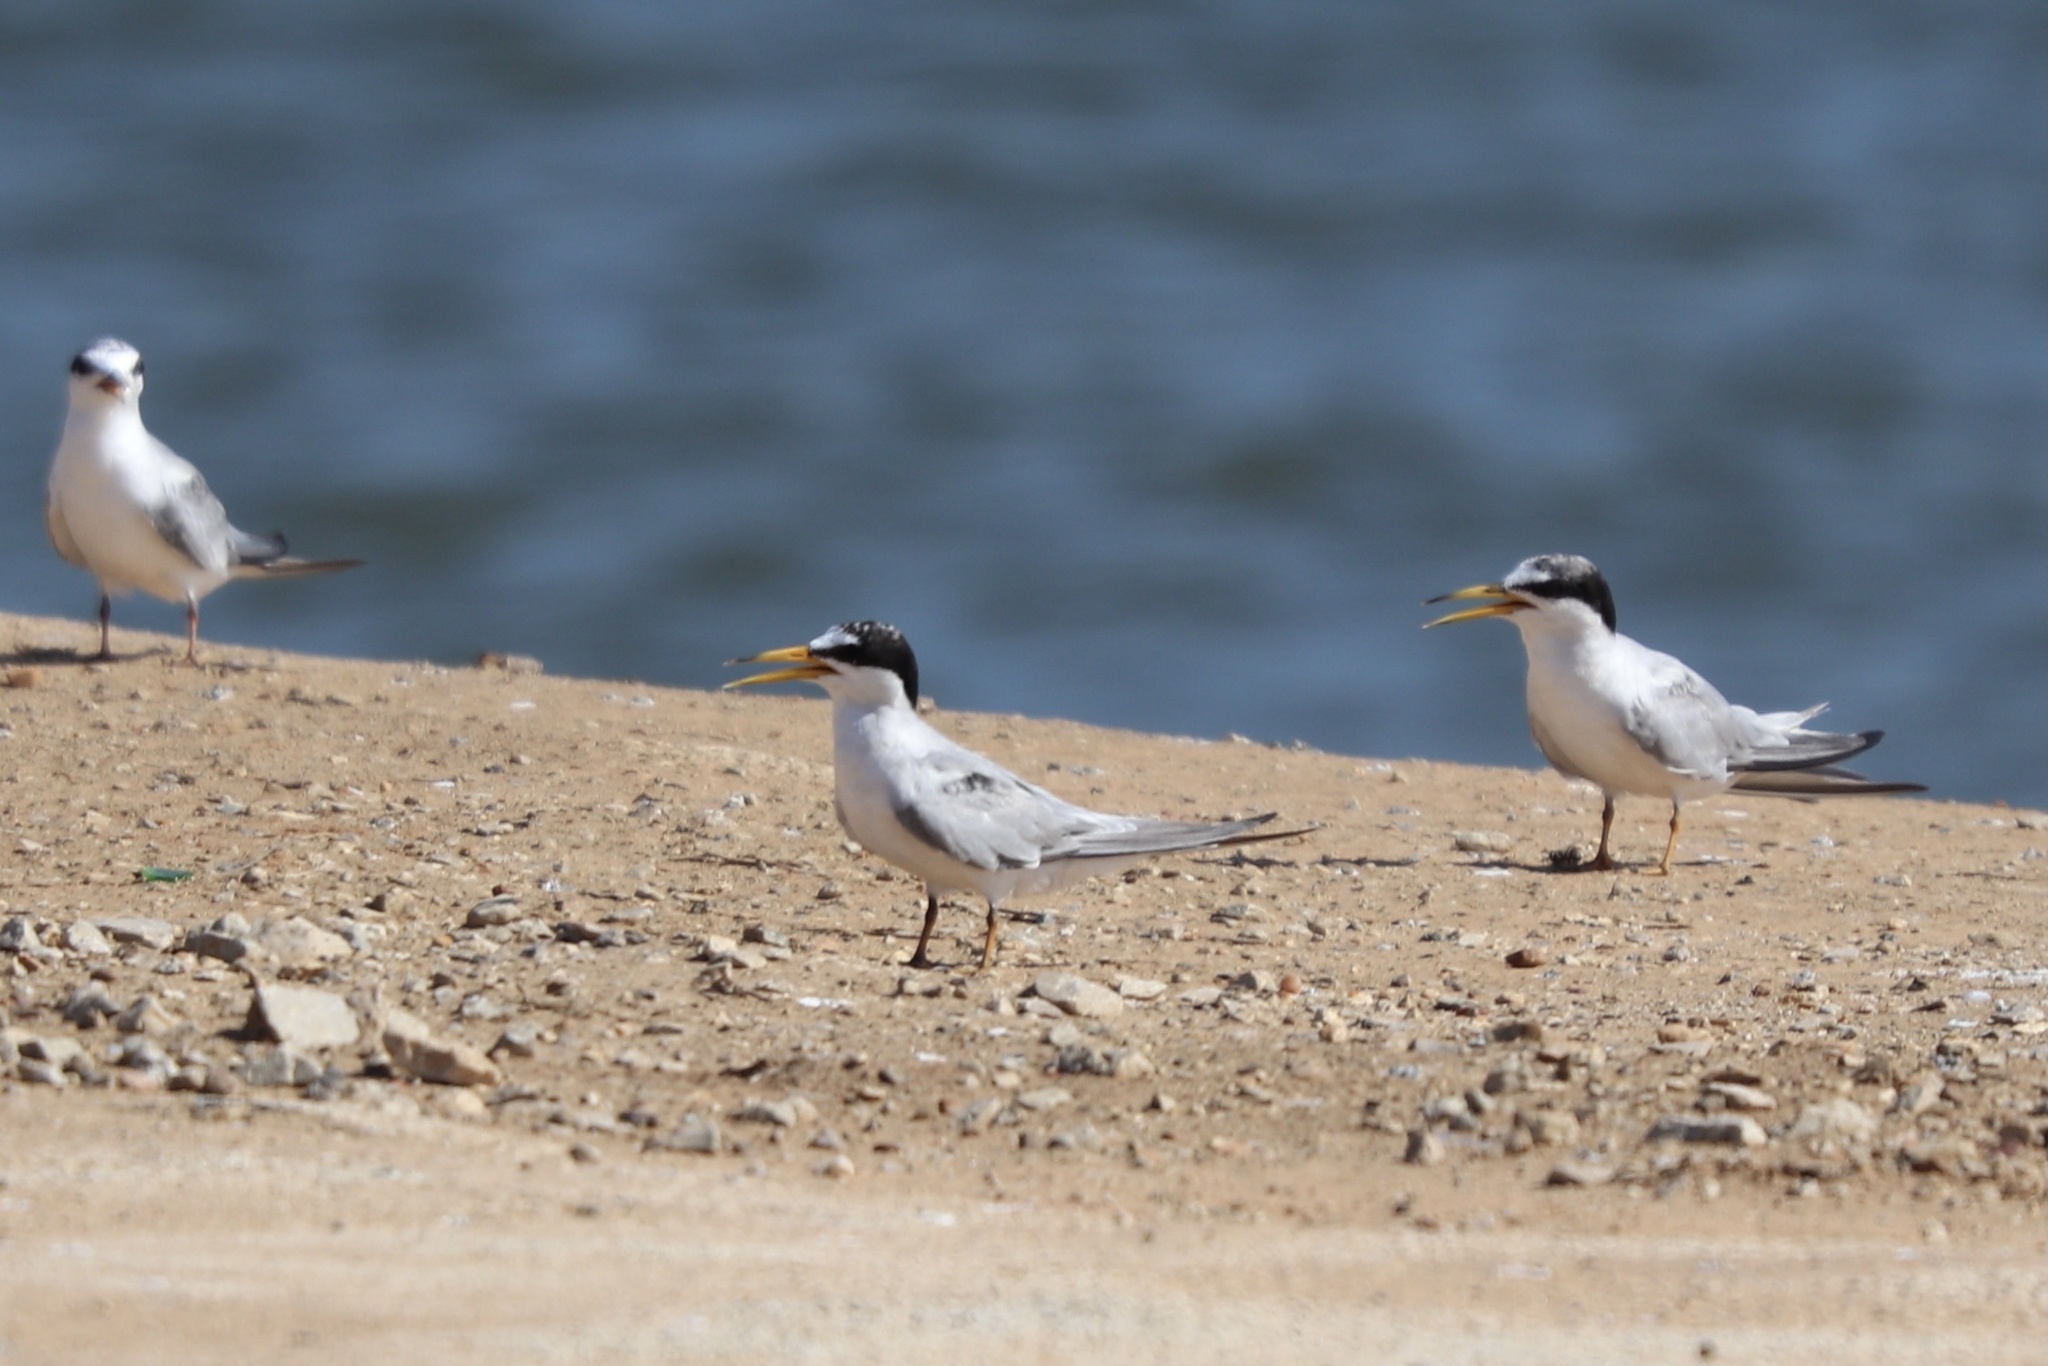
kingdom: Animalia
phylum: Chordata
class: Aves
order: Charadriiformes
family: Laridae
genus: Sternula
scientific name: Sternula antillarum
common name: Least tern
